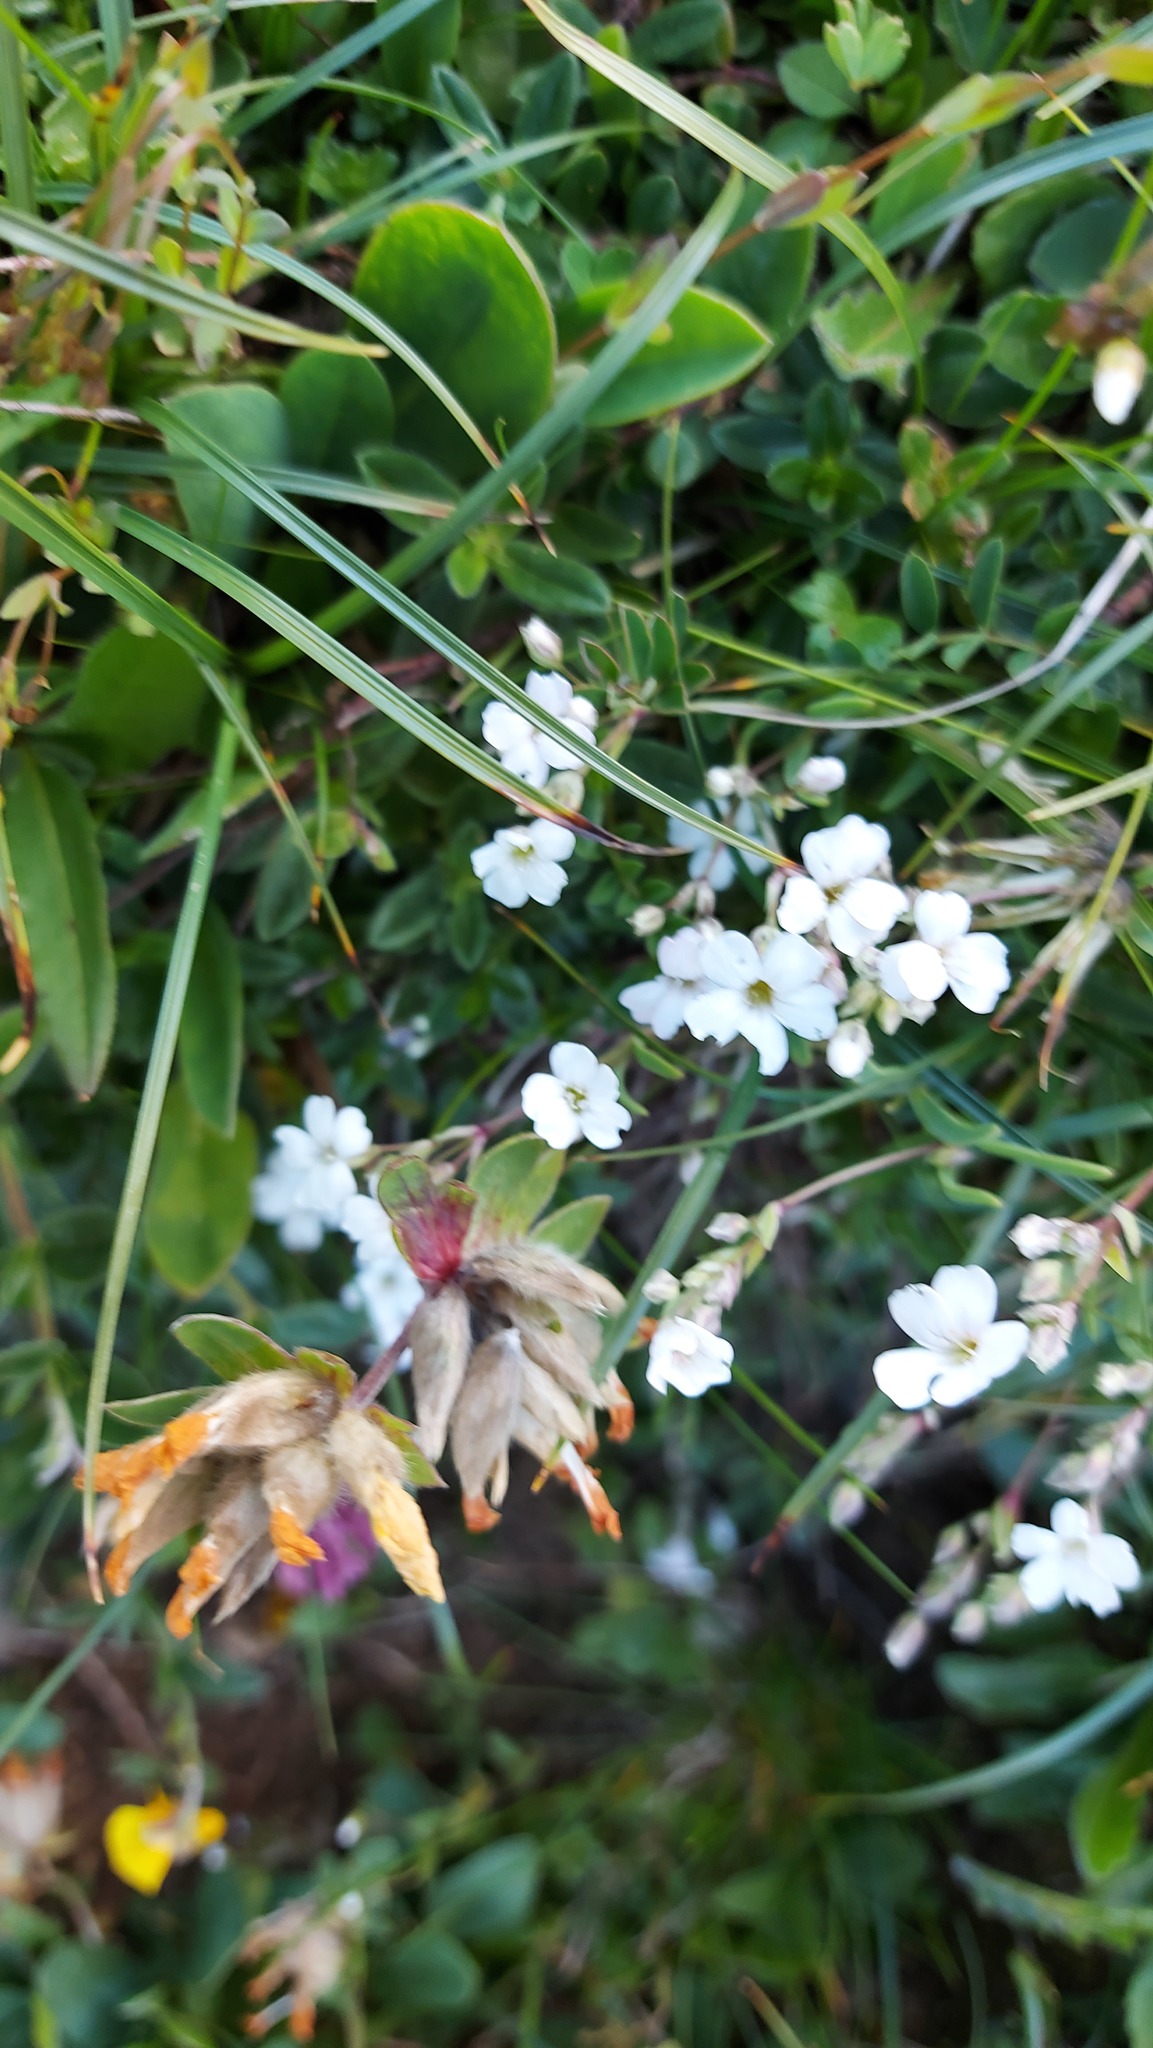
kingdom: Plantae
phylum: Tracheophyta
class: Magnoliopsida
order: Caryophyllales
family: Caryophyllaceae
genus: Gypsophila
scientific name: Gypsophila repens
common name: Creeping baby's-breath
